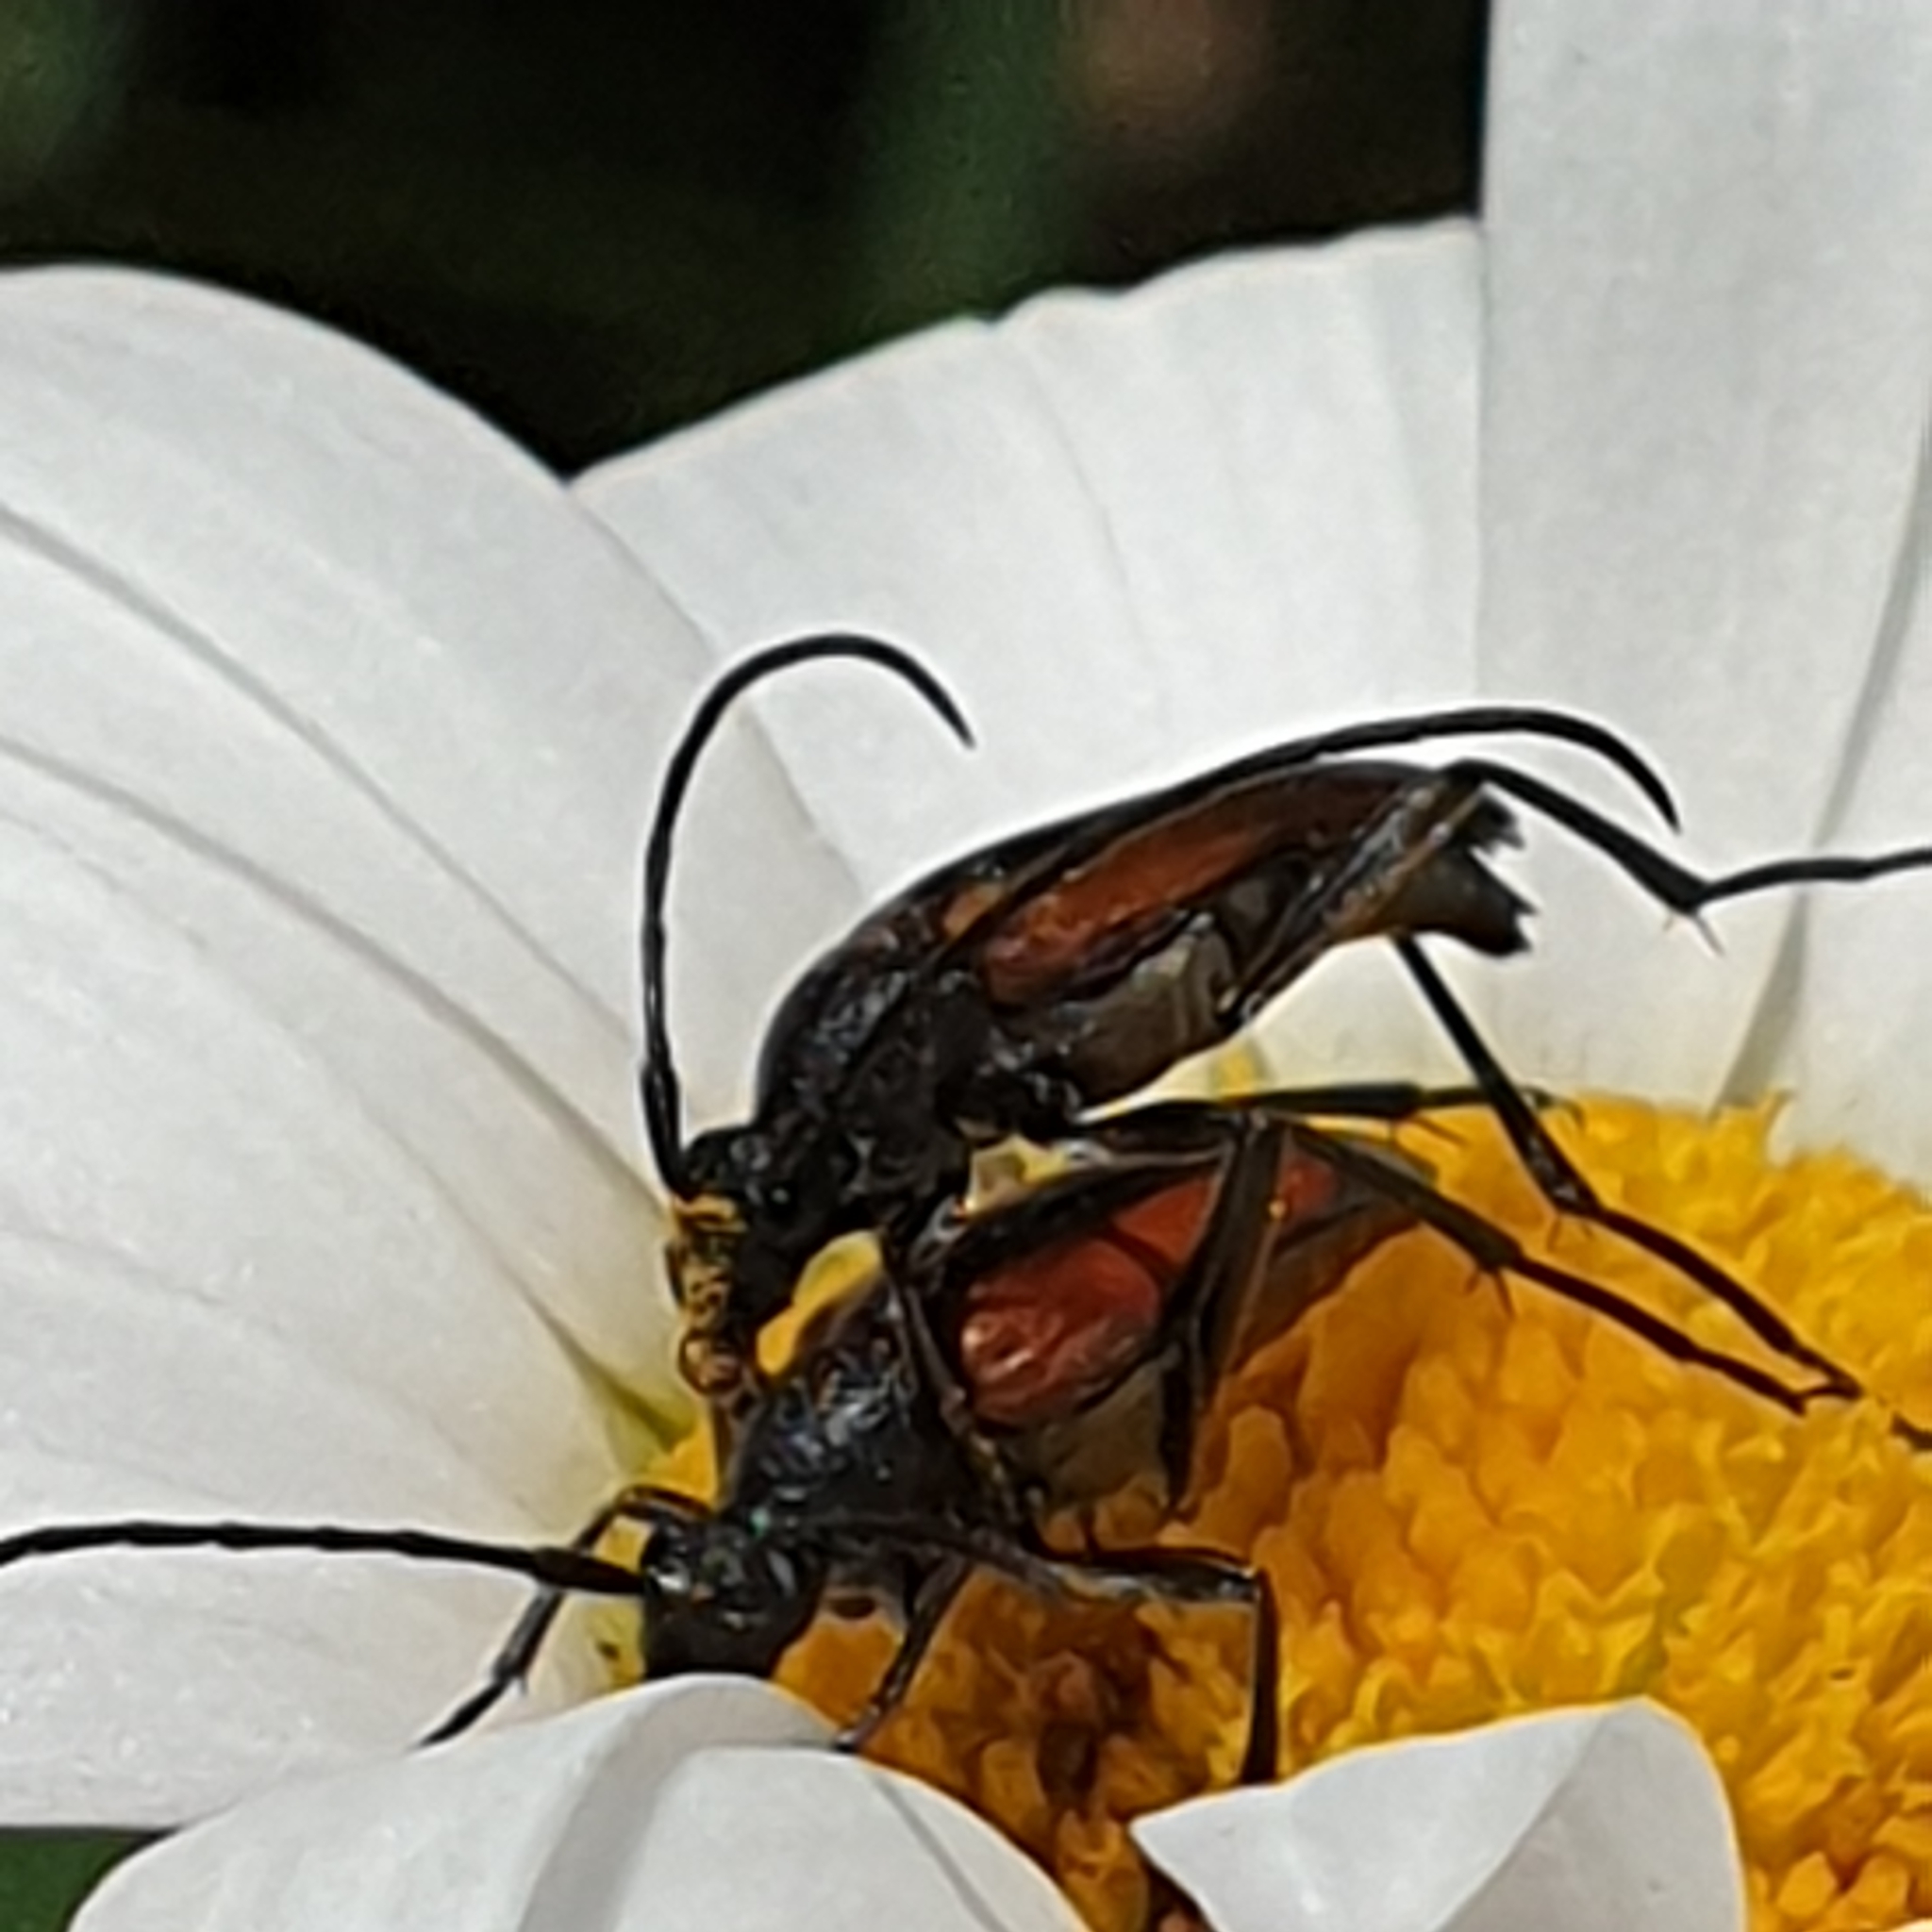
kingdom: Animalia
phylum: Arthropoda
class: Insecta
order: Coleoptera
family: Cerambycidae
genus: Stenurella
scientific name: Stenurella melanura
